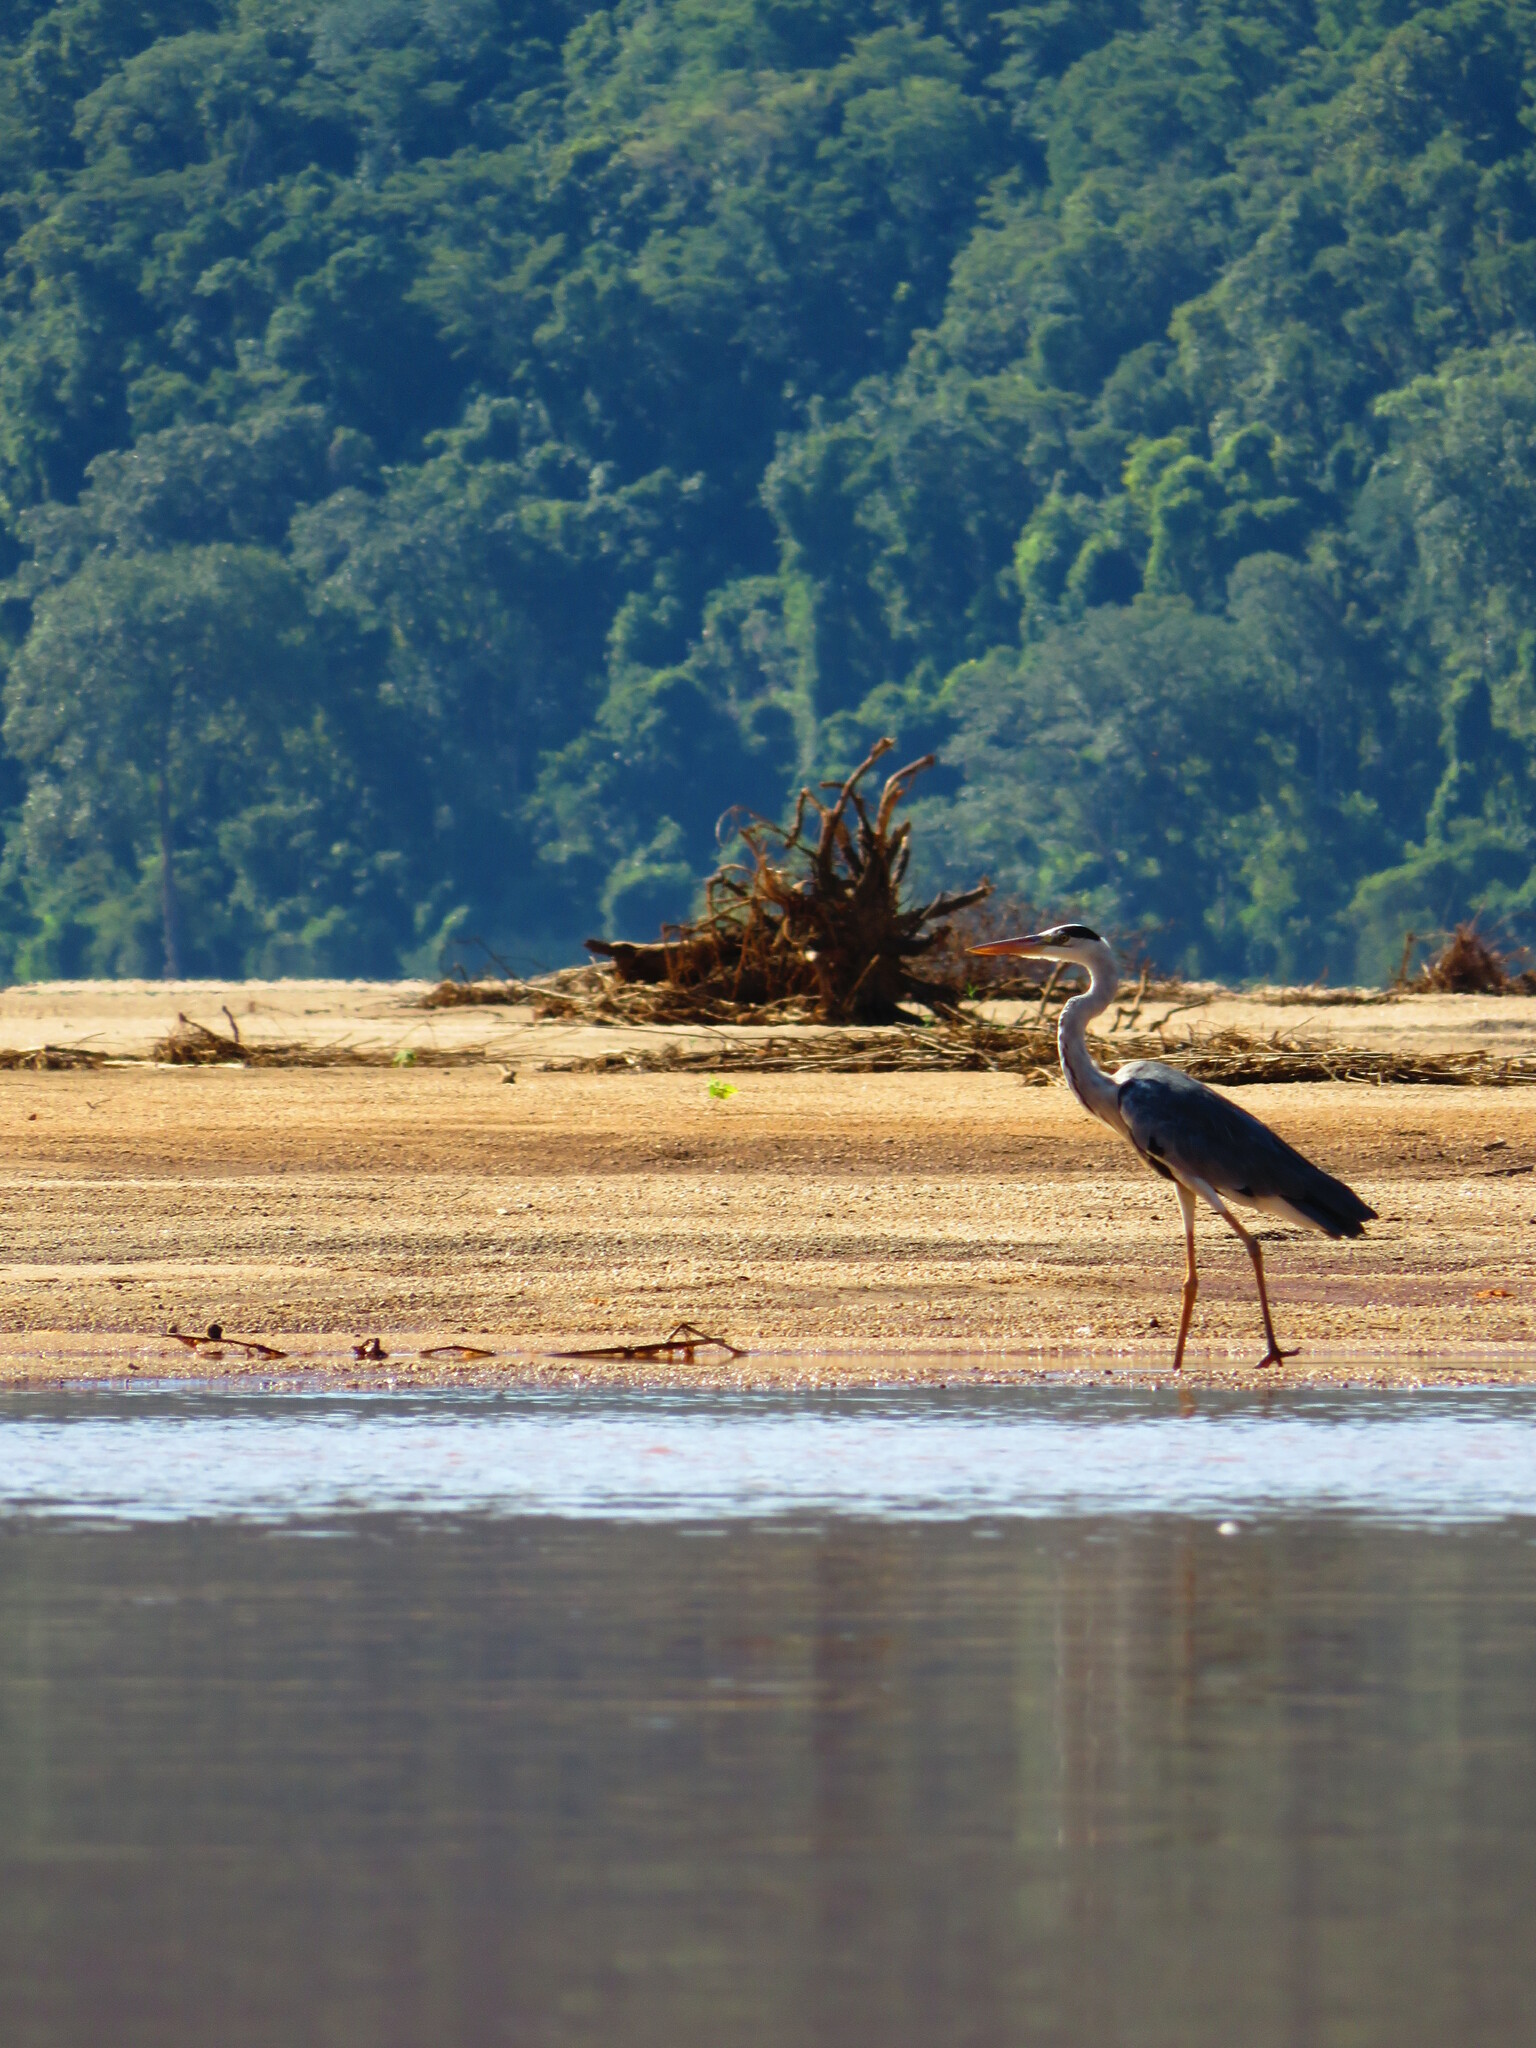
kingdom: Animalia
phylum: Chordata
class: Aves
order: Pelecaniformes
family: Ardeidae
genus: Ardea
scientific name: Ardea cinerea
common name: Grey heron
